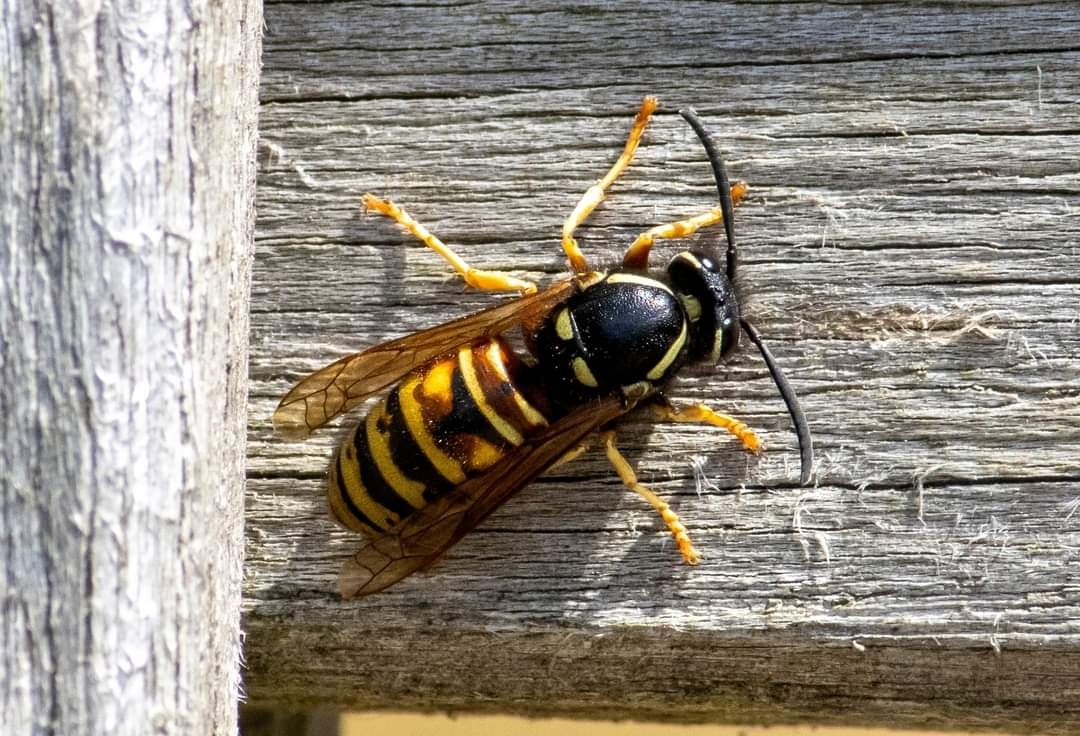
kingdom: Animalia
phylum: Arthropoda
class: Insecta
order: Hymenoptera
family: Vespidae
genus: Vespula
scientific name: Vespula rufa
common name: Red wasp
